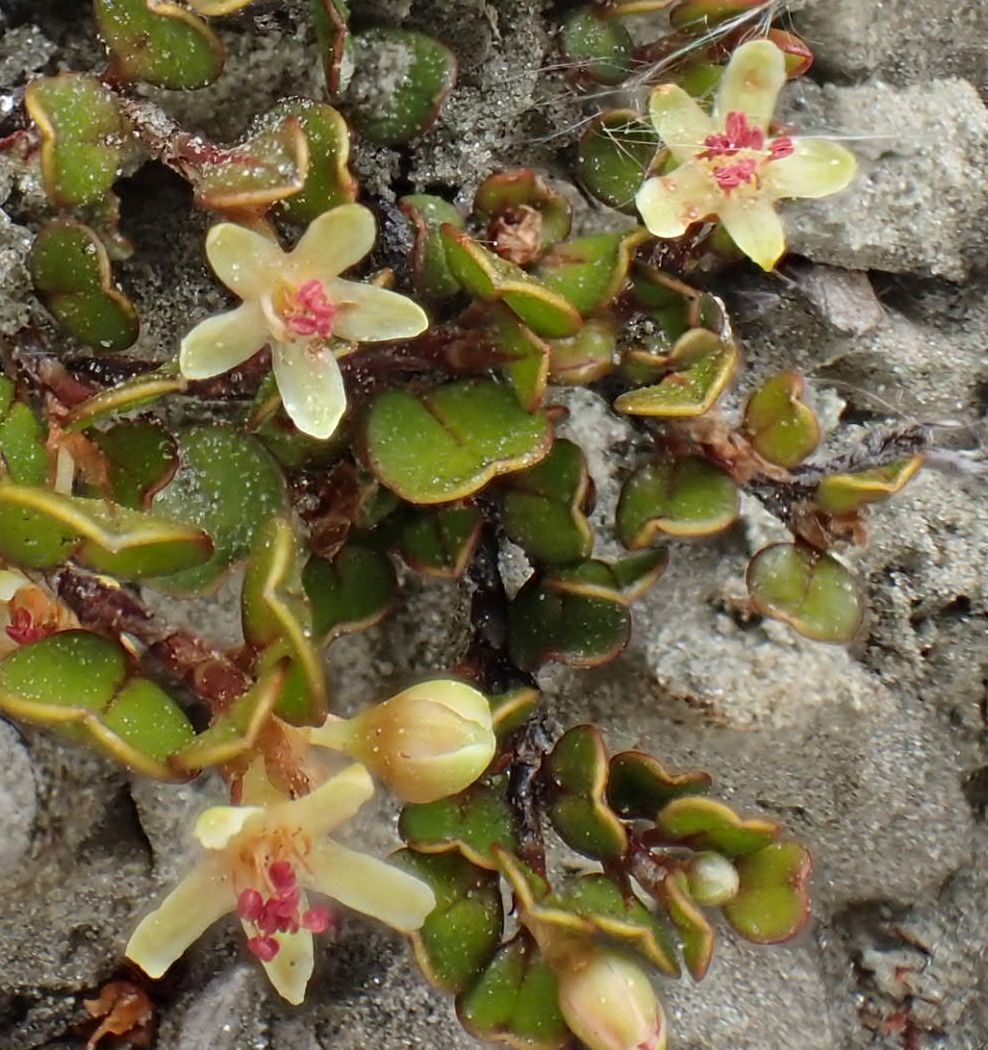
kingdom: Plantae
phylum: Tracheophyta
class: Magnoliopsida
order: Caryophyllales
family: Polygonaceae
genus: Muehlenbeckia
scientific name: Muehlenbeckia axillaris
